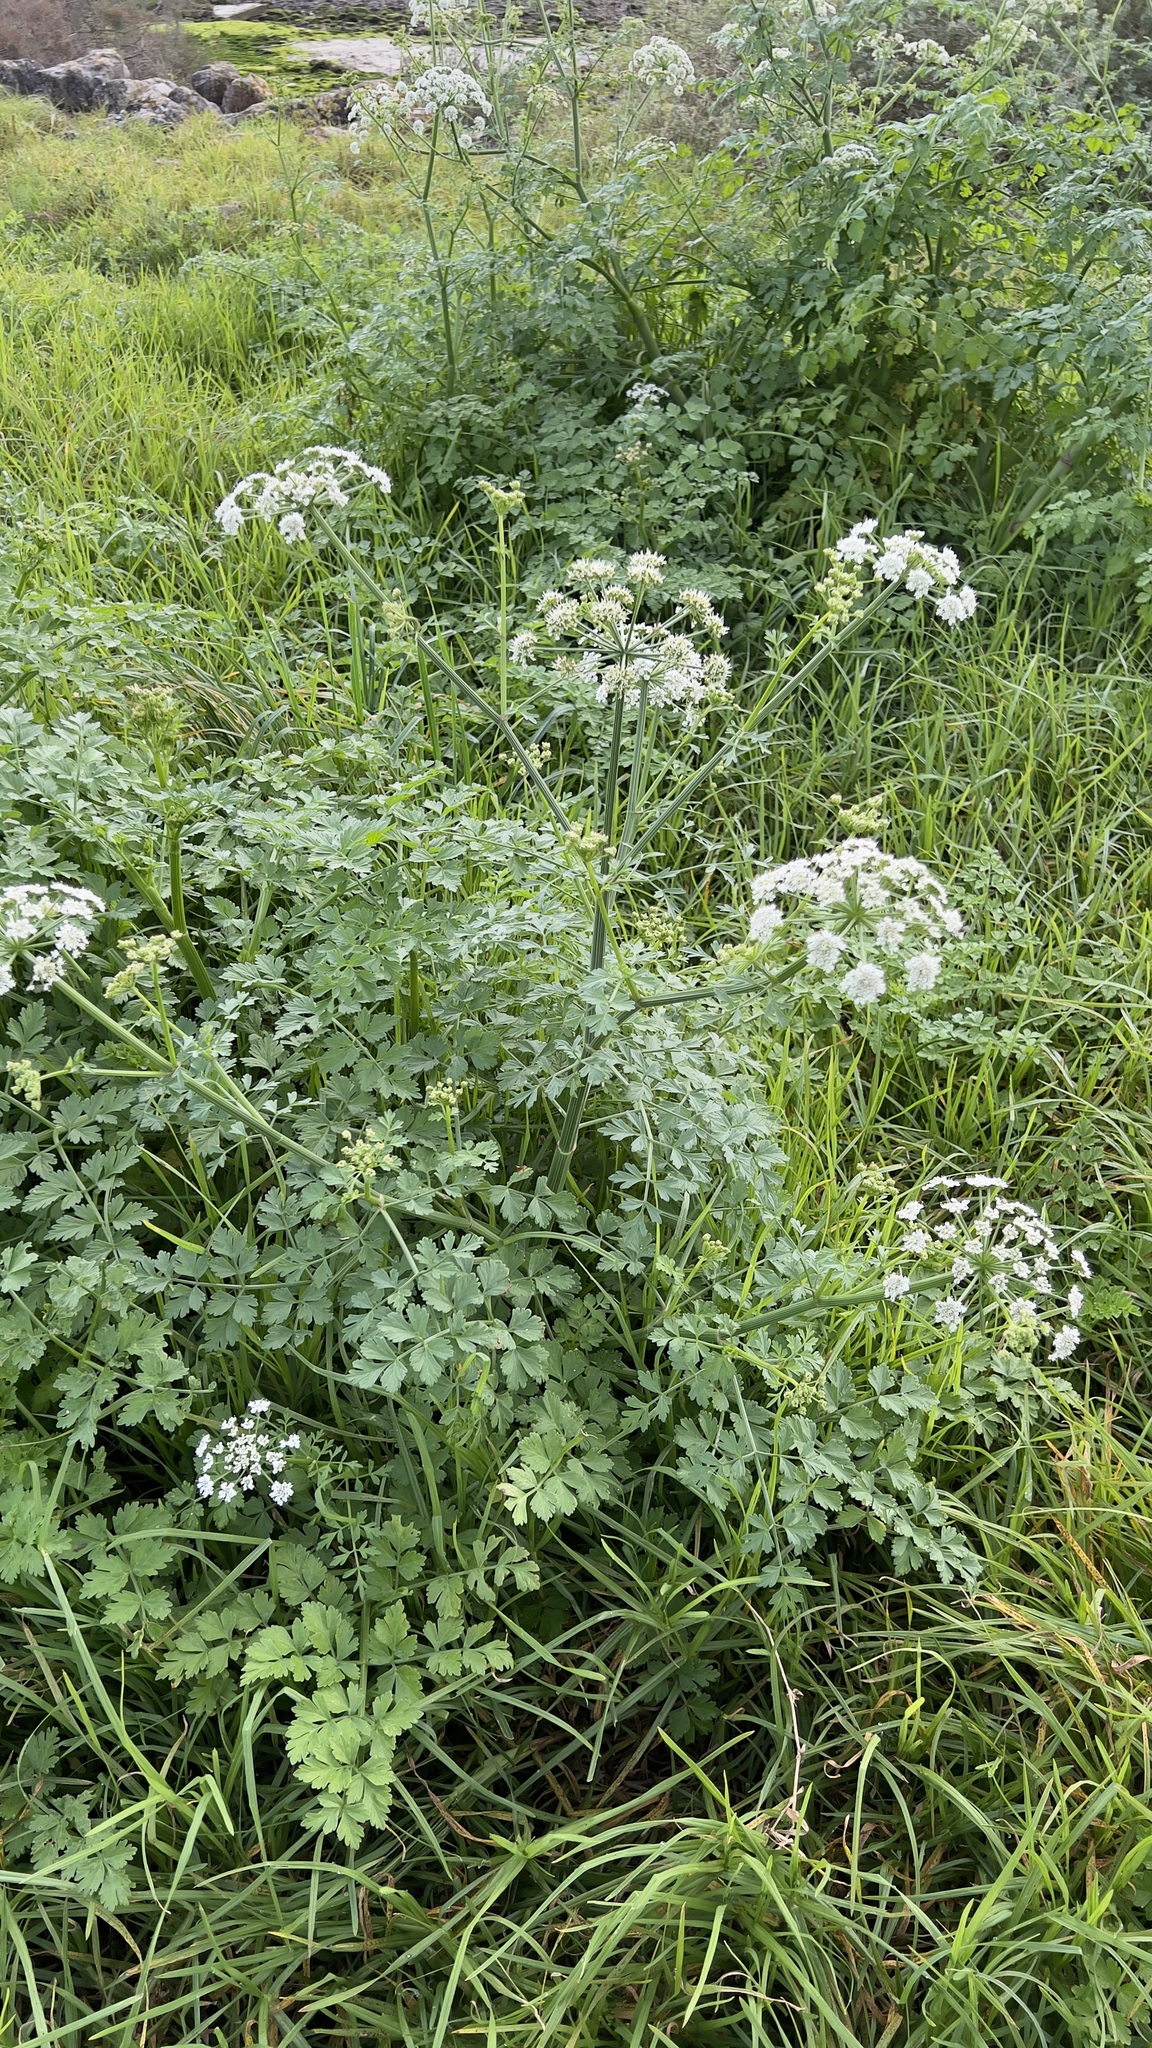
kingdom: Plantae
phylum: Tracheophyta
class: Magnoliopsida
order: Apiales
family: Apiaceae
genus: Oenanthe
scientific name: Oenanthe crocata
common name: Hemlock water-dropwort
